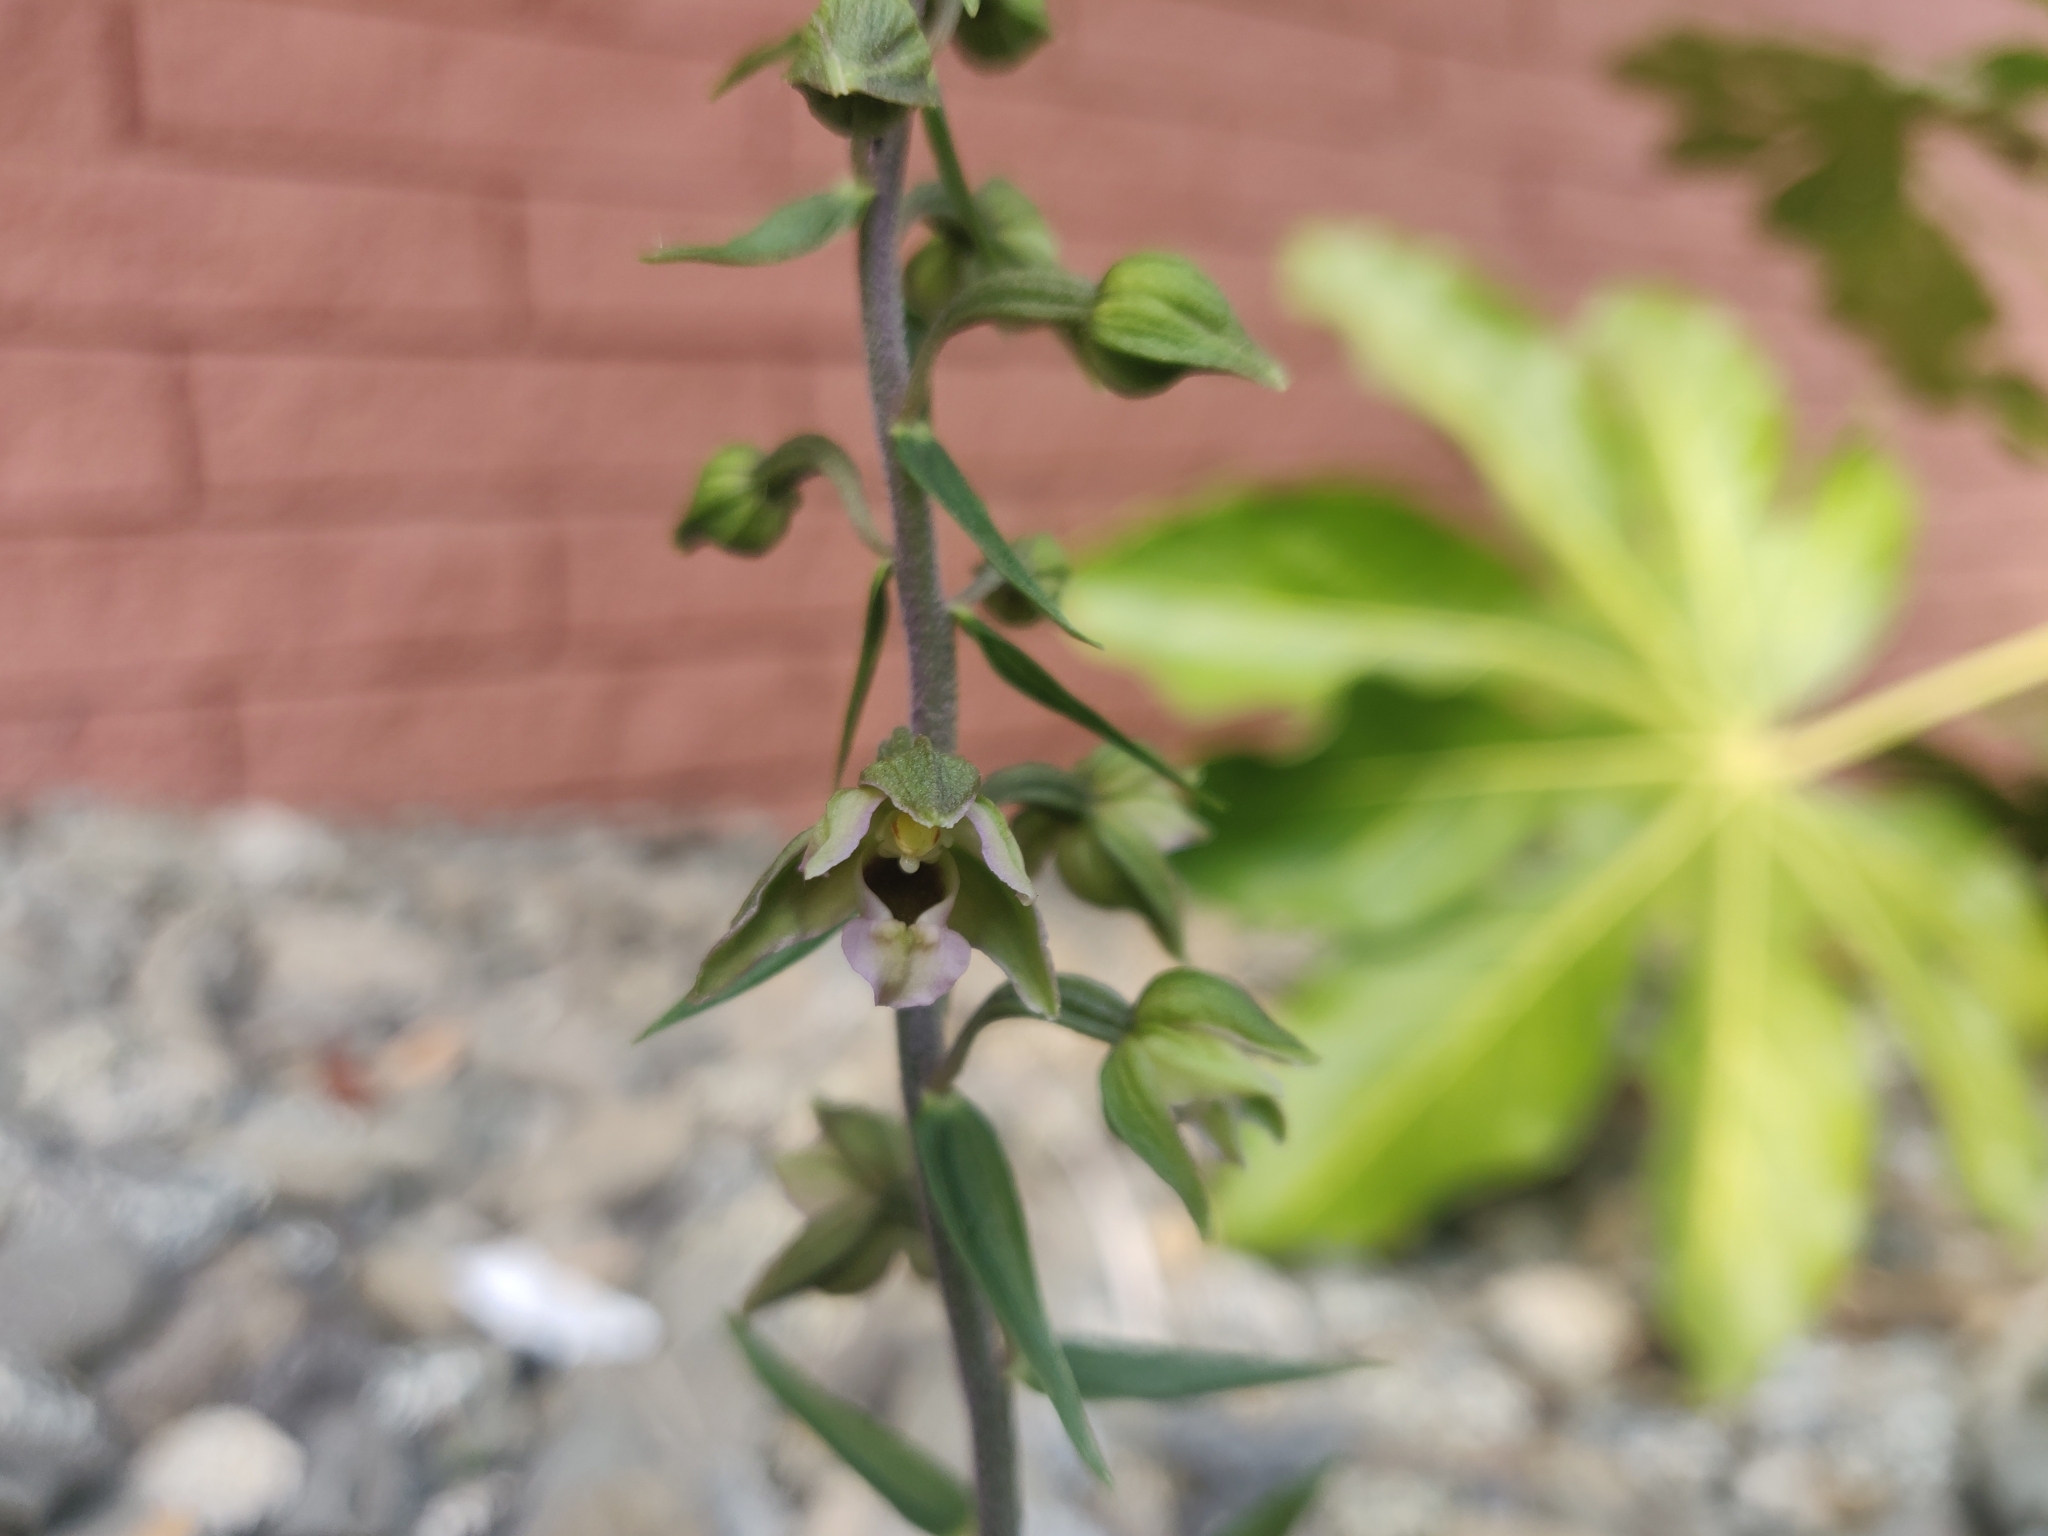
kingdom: Plantae
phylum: Tracheophyta
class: Liliopsida
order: Asparagales
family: Orchidaceae
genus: Epipactis
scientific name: Epipactis helleborine
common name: Broad-leaved helleborine
